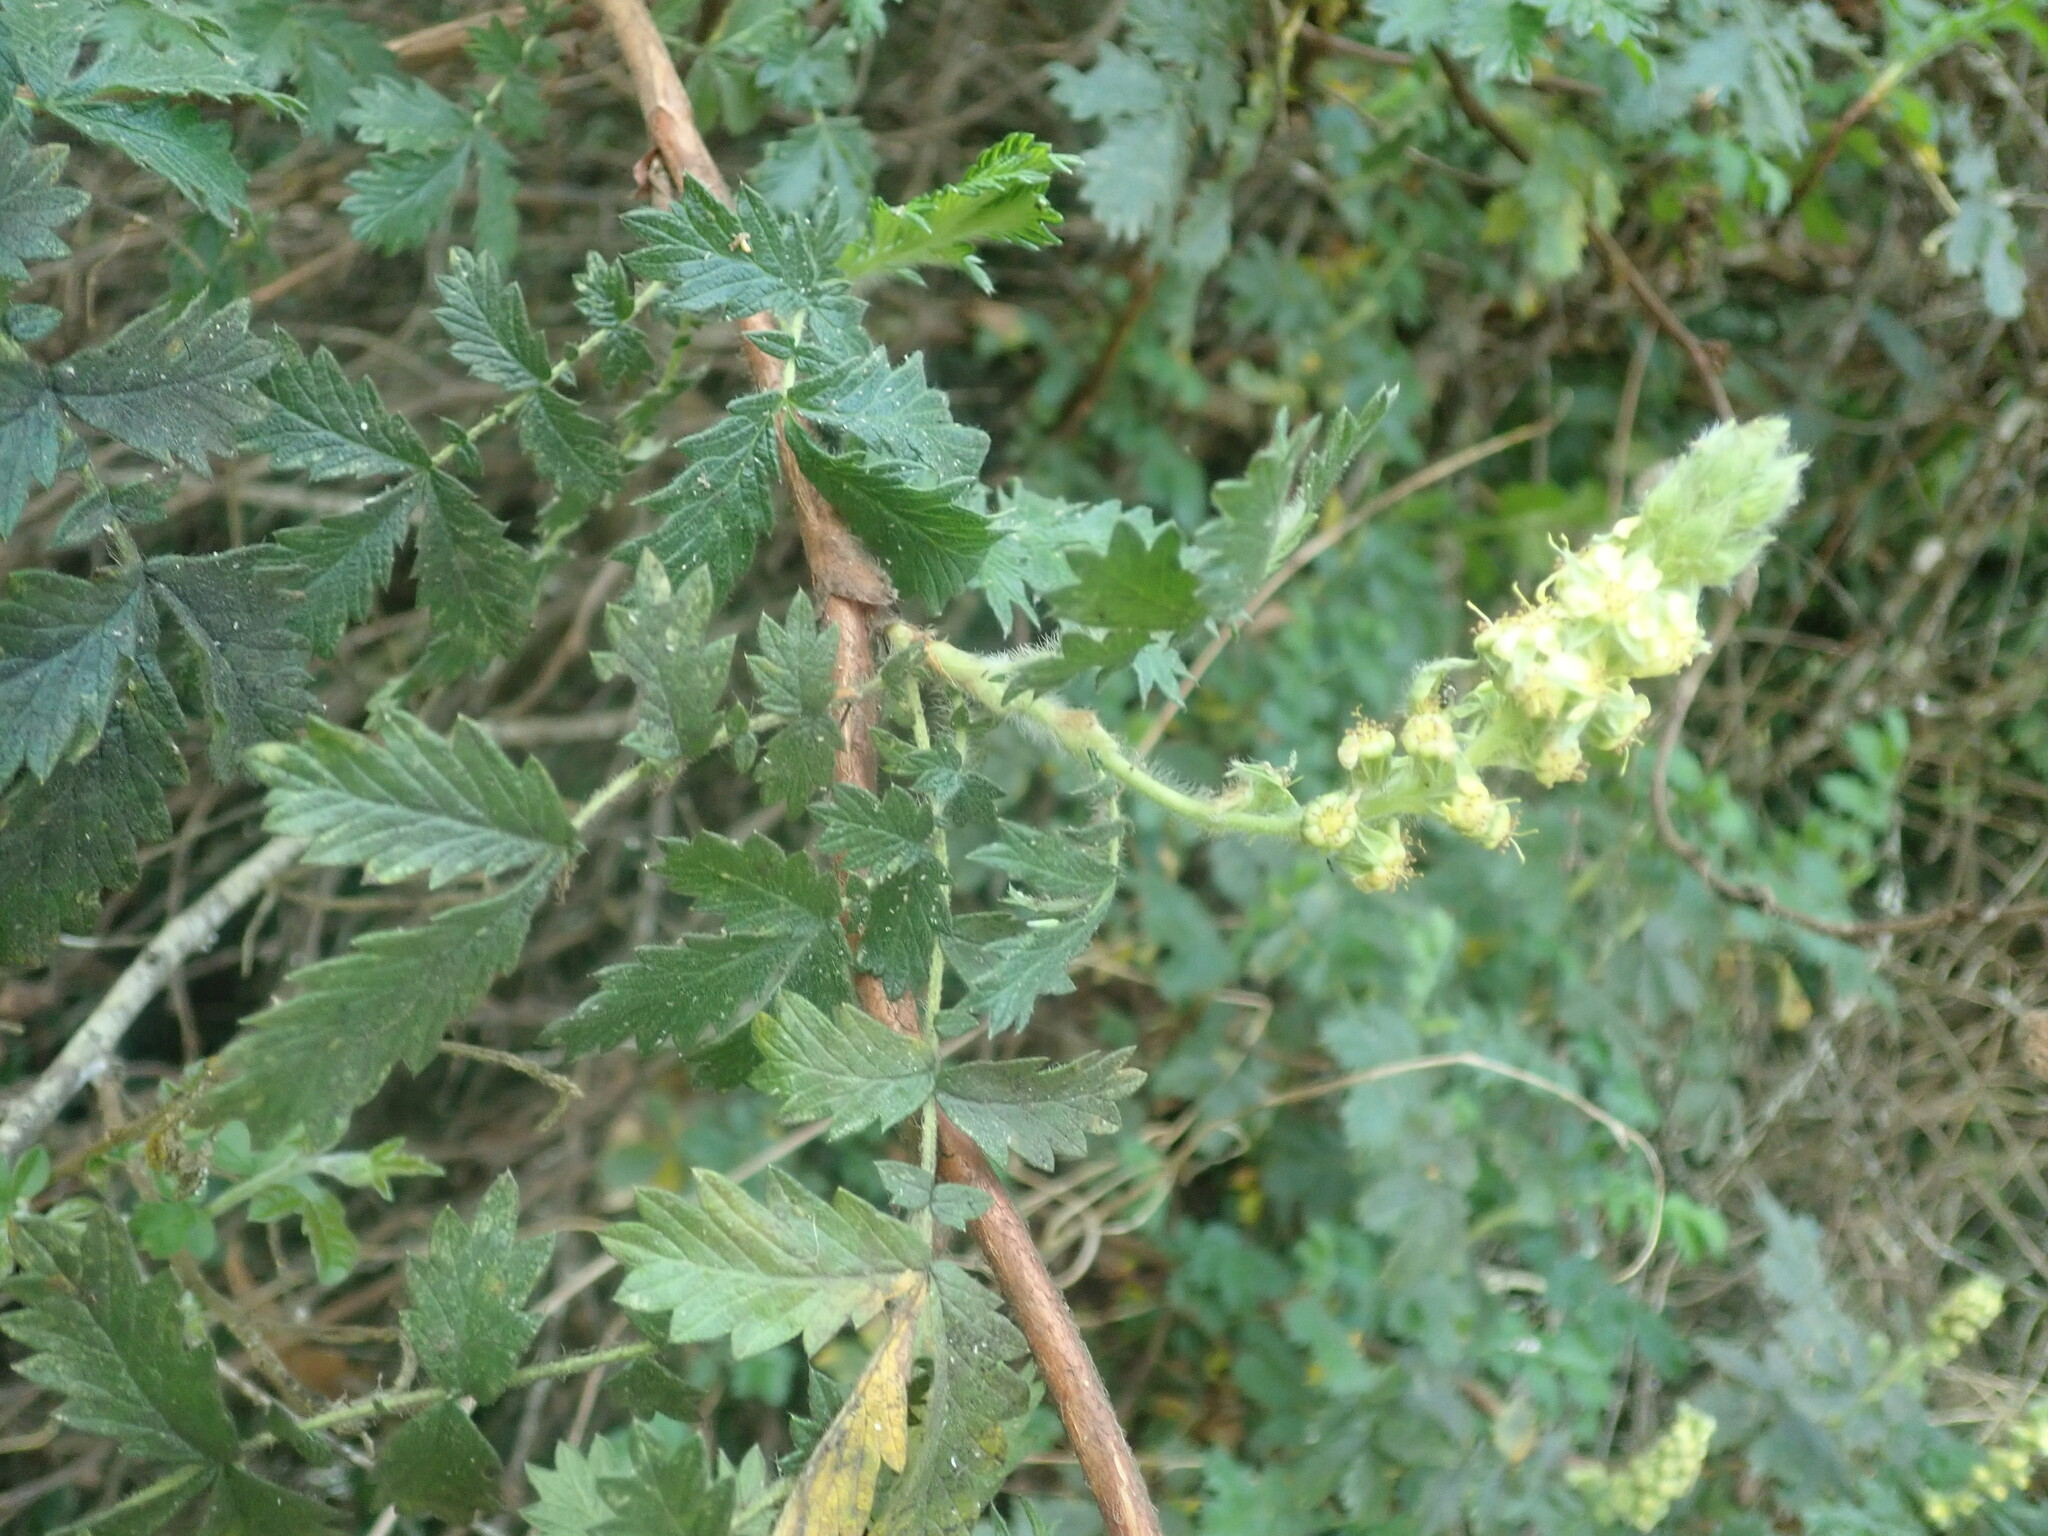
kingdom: Plantae
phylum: Tracheophyta
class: Magnoliopsida
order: Rosales
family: Rosaceae
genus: Leucosidea
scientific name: Leucosidea sericea
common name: Oldwood
